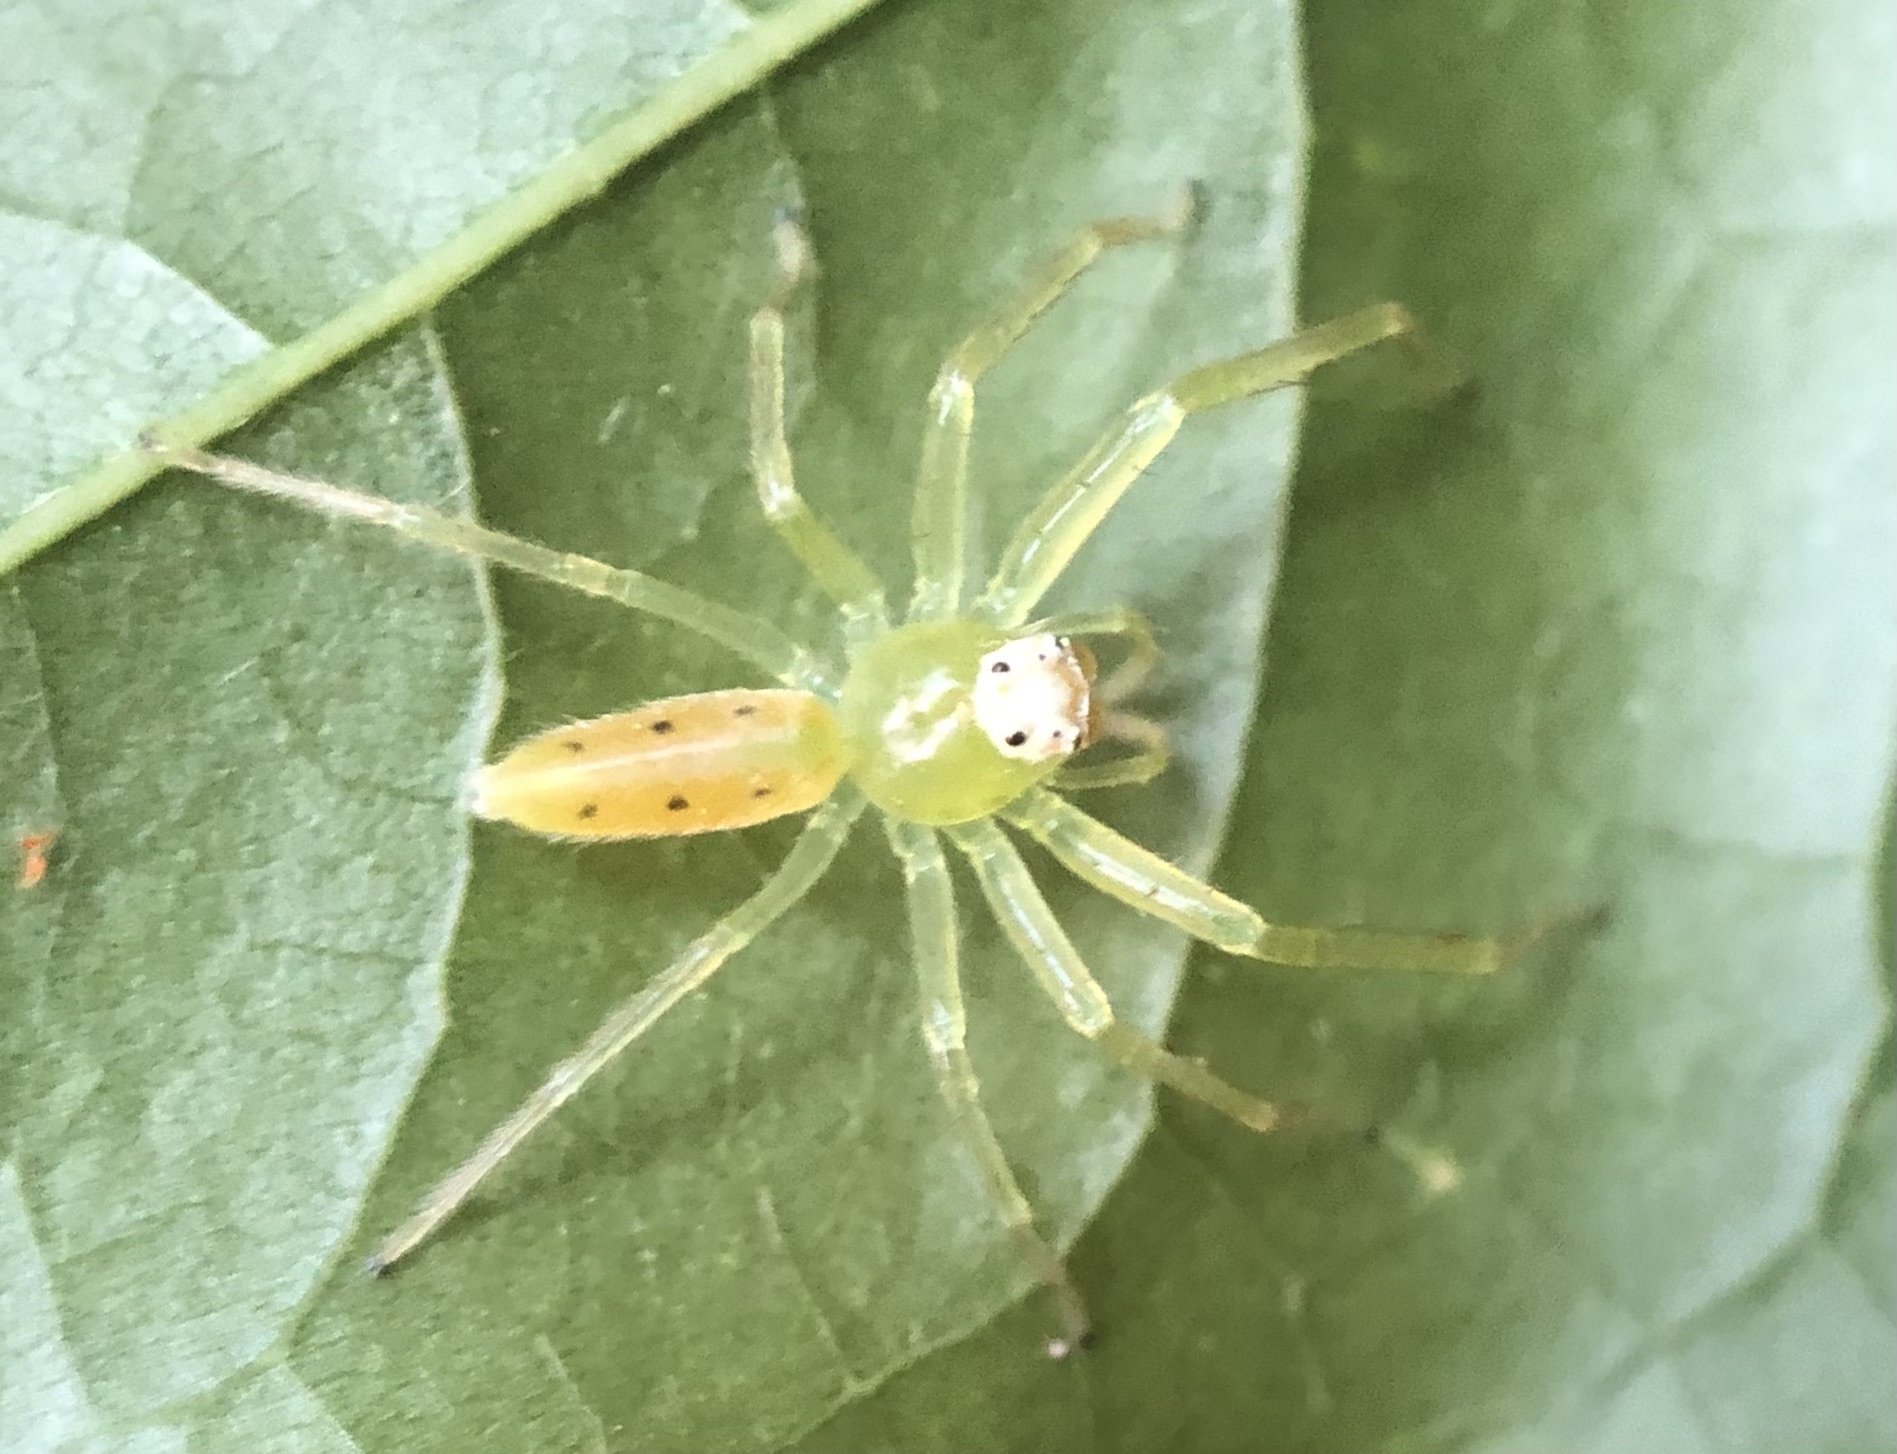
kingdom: Animalia
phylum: Arthropoda
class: Arachnida
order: Araneae
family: Salticidae
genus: Lyssomanes
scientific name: Lyssomanes viridis
